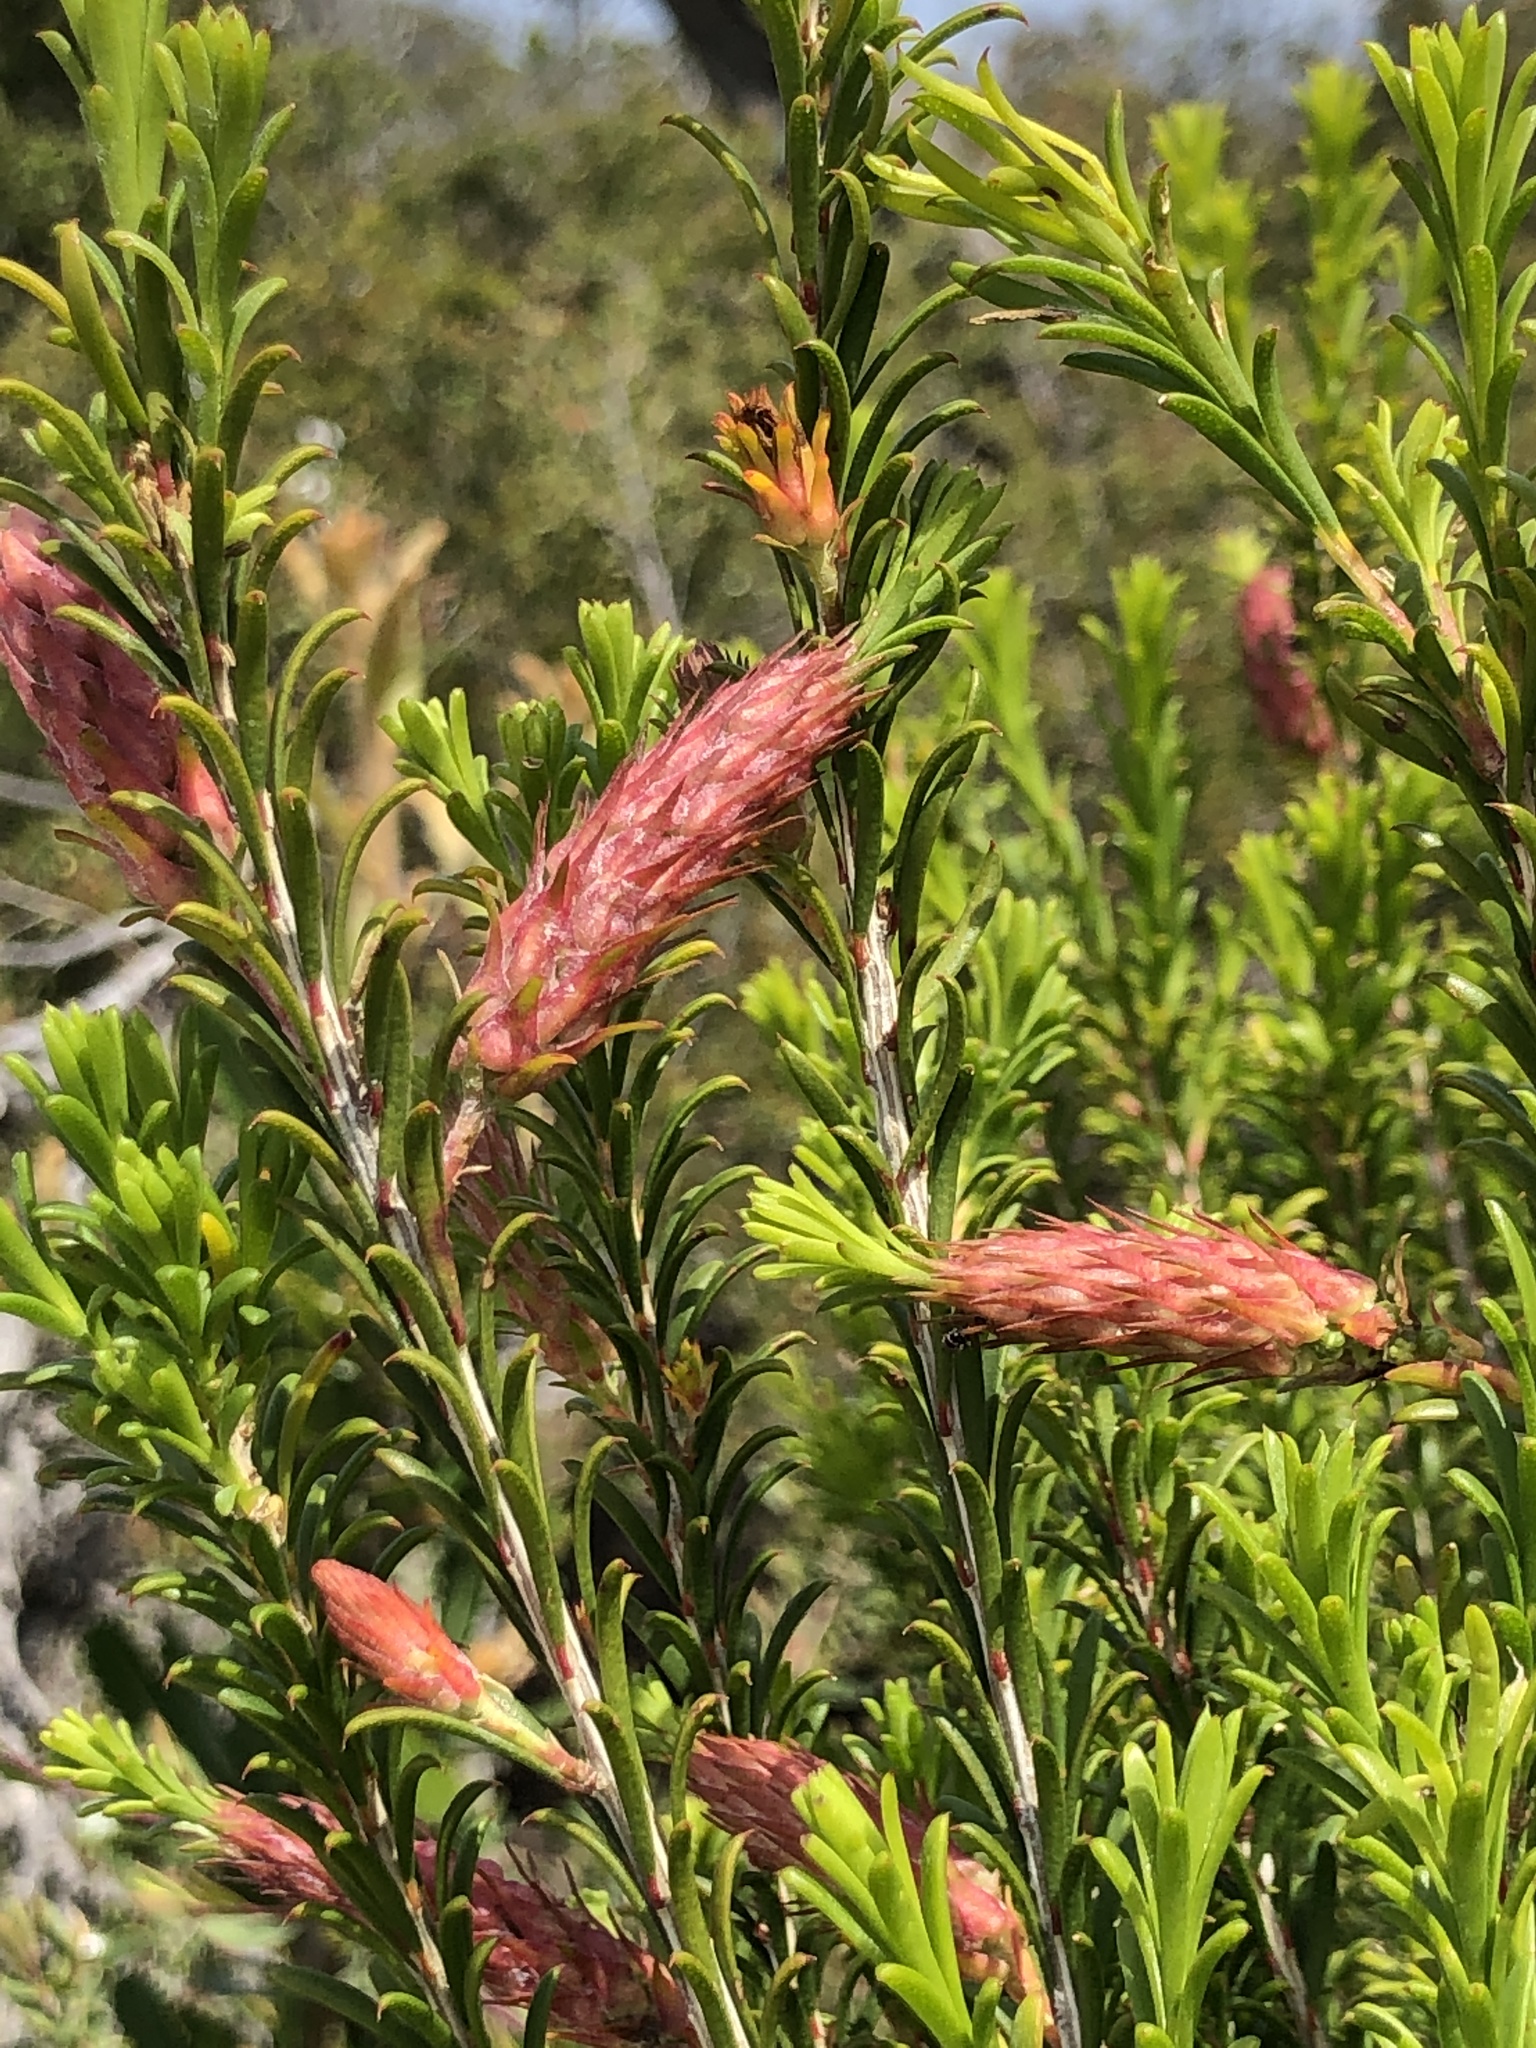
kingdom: Plantae
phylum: Tracheophyta
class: Magnoliopsida
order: Myrtales
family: Myrtaceae
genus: Melaleuca
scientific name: Melaleuca armillaris
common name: Bracelet honey myrtle
